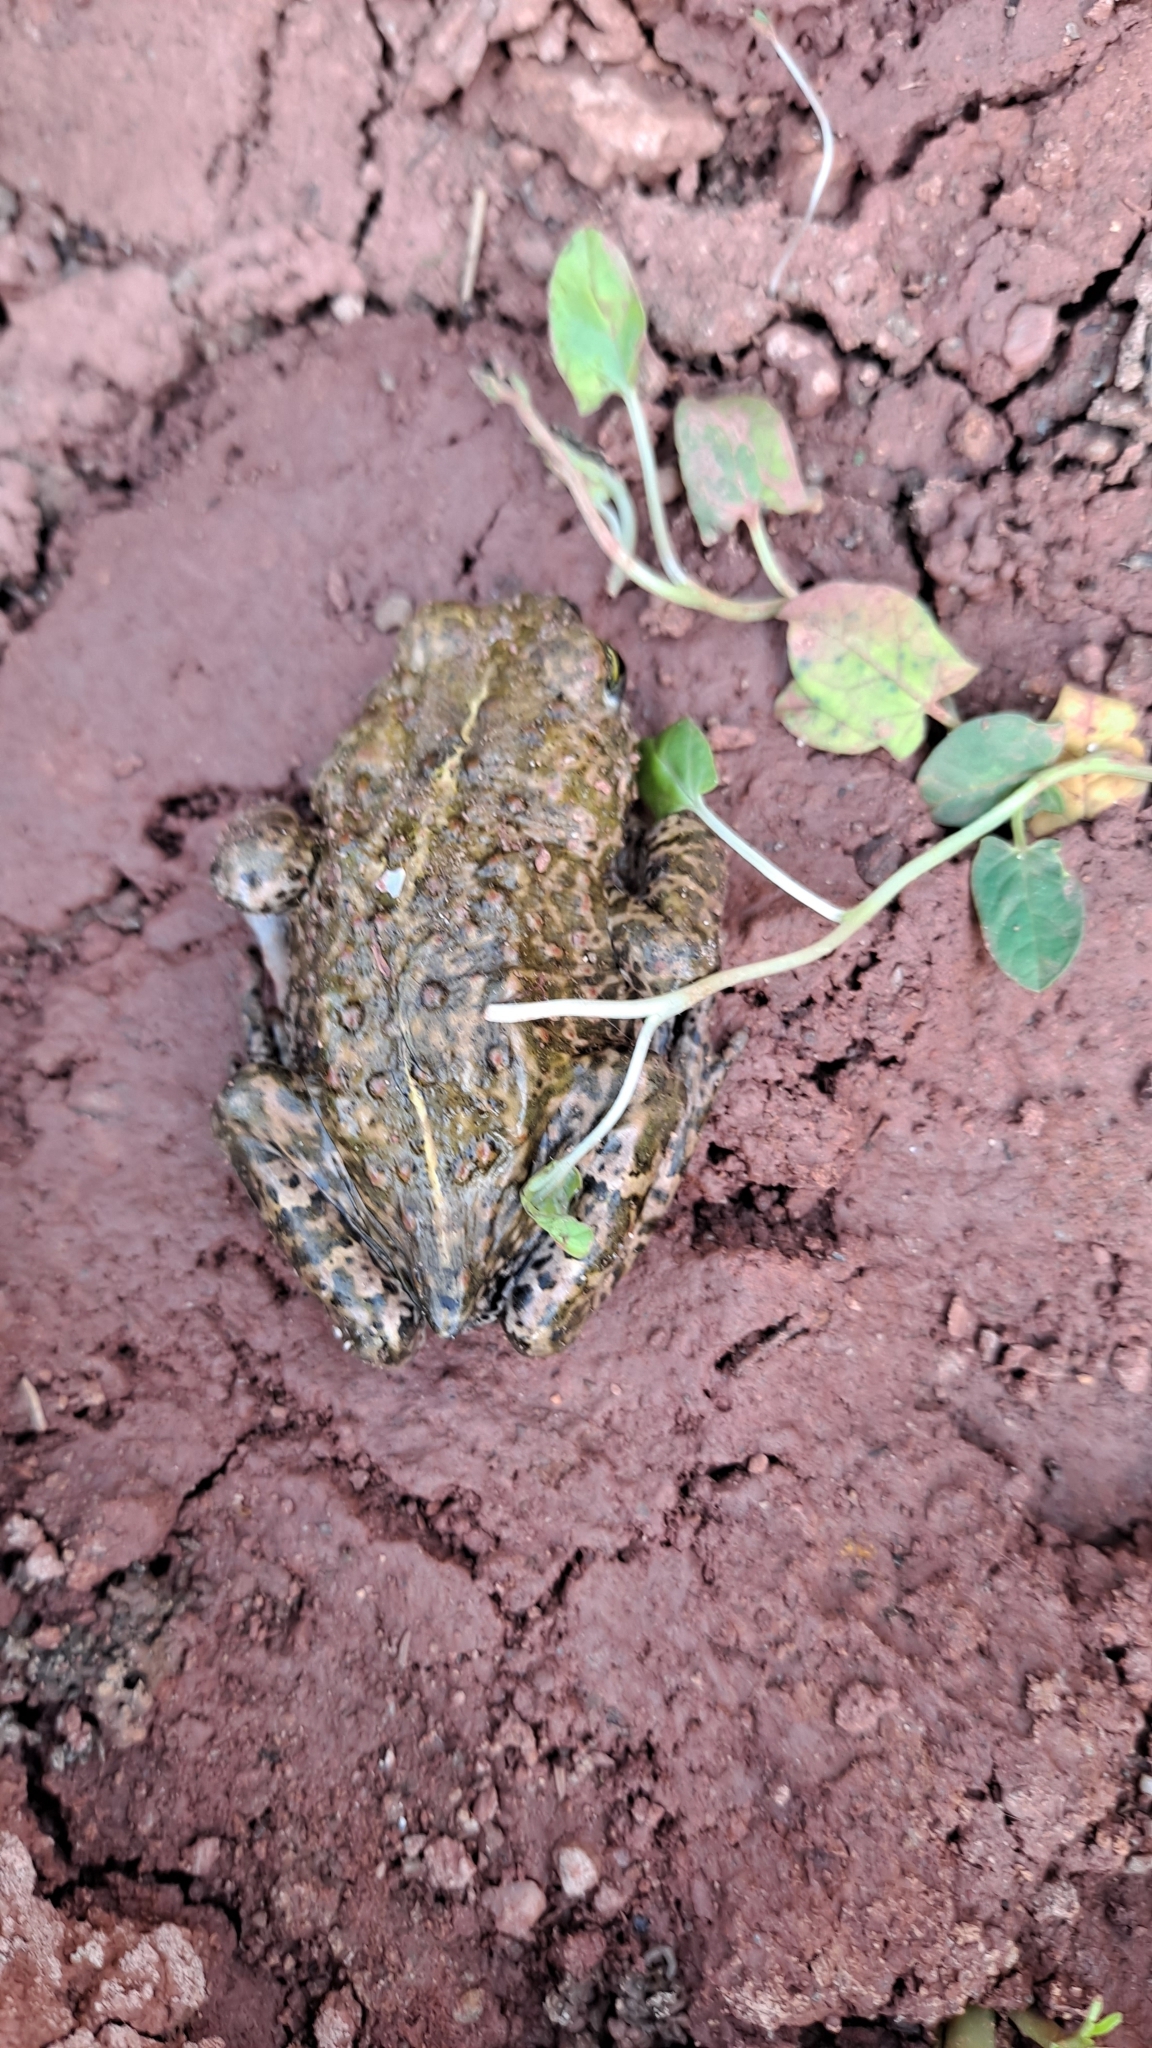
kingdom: Animalia
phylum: Chordata
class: Amphibia
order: Anura
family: Bufonidae
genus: Epidalea
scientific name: Epidalea calamita
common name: Natterjack toad
